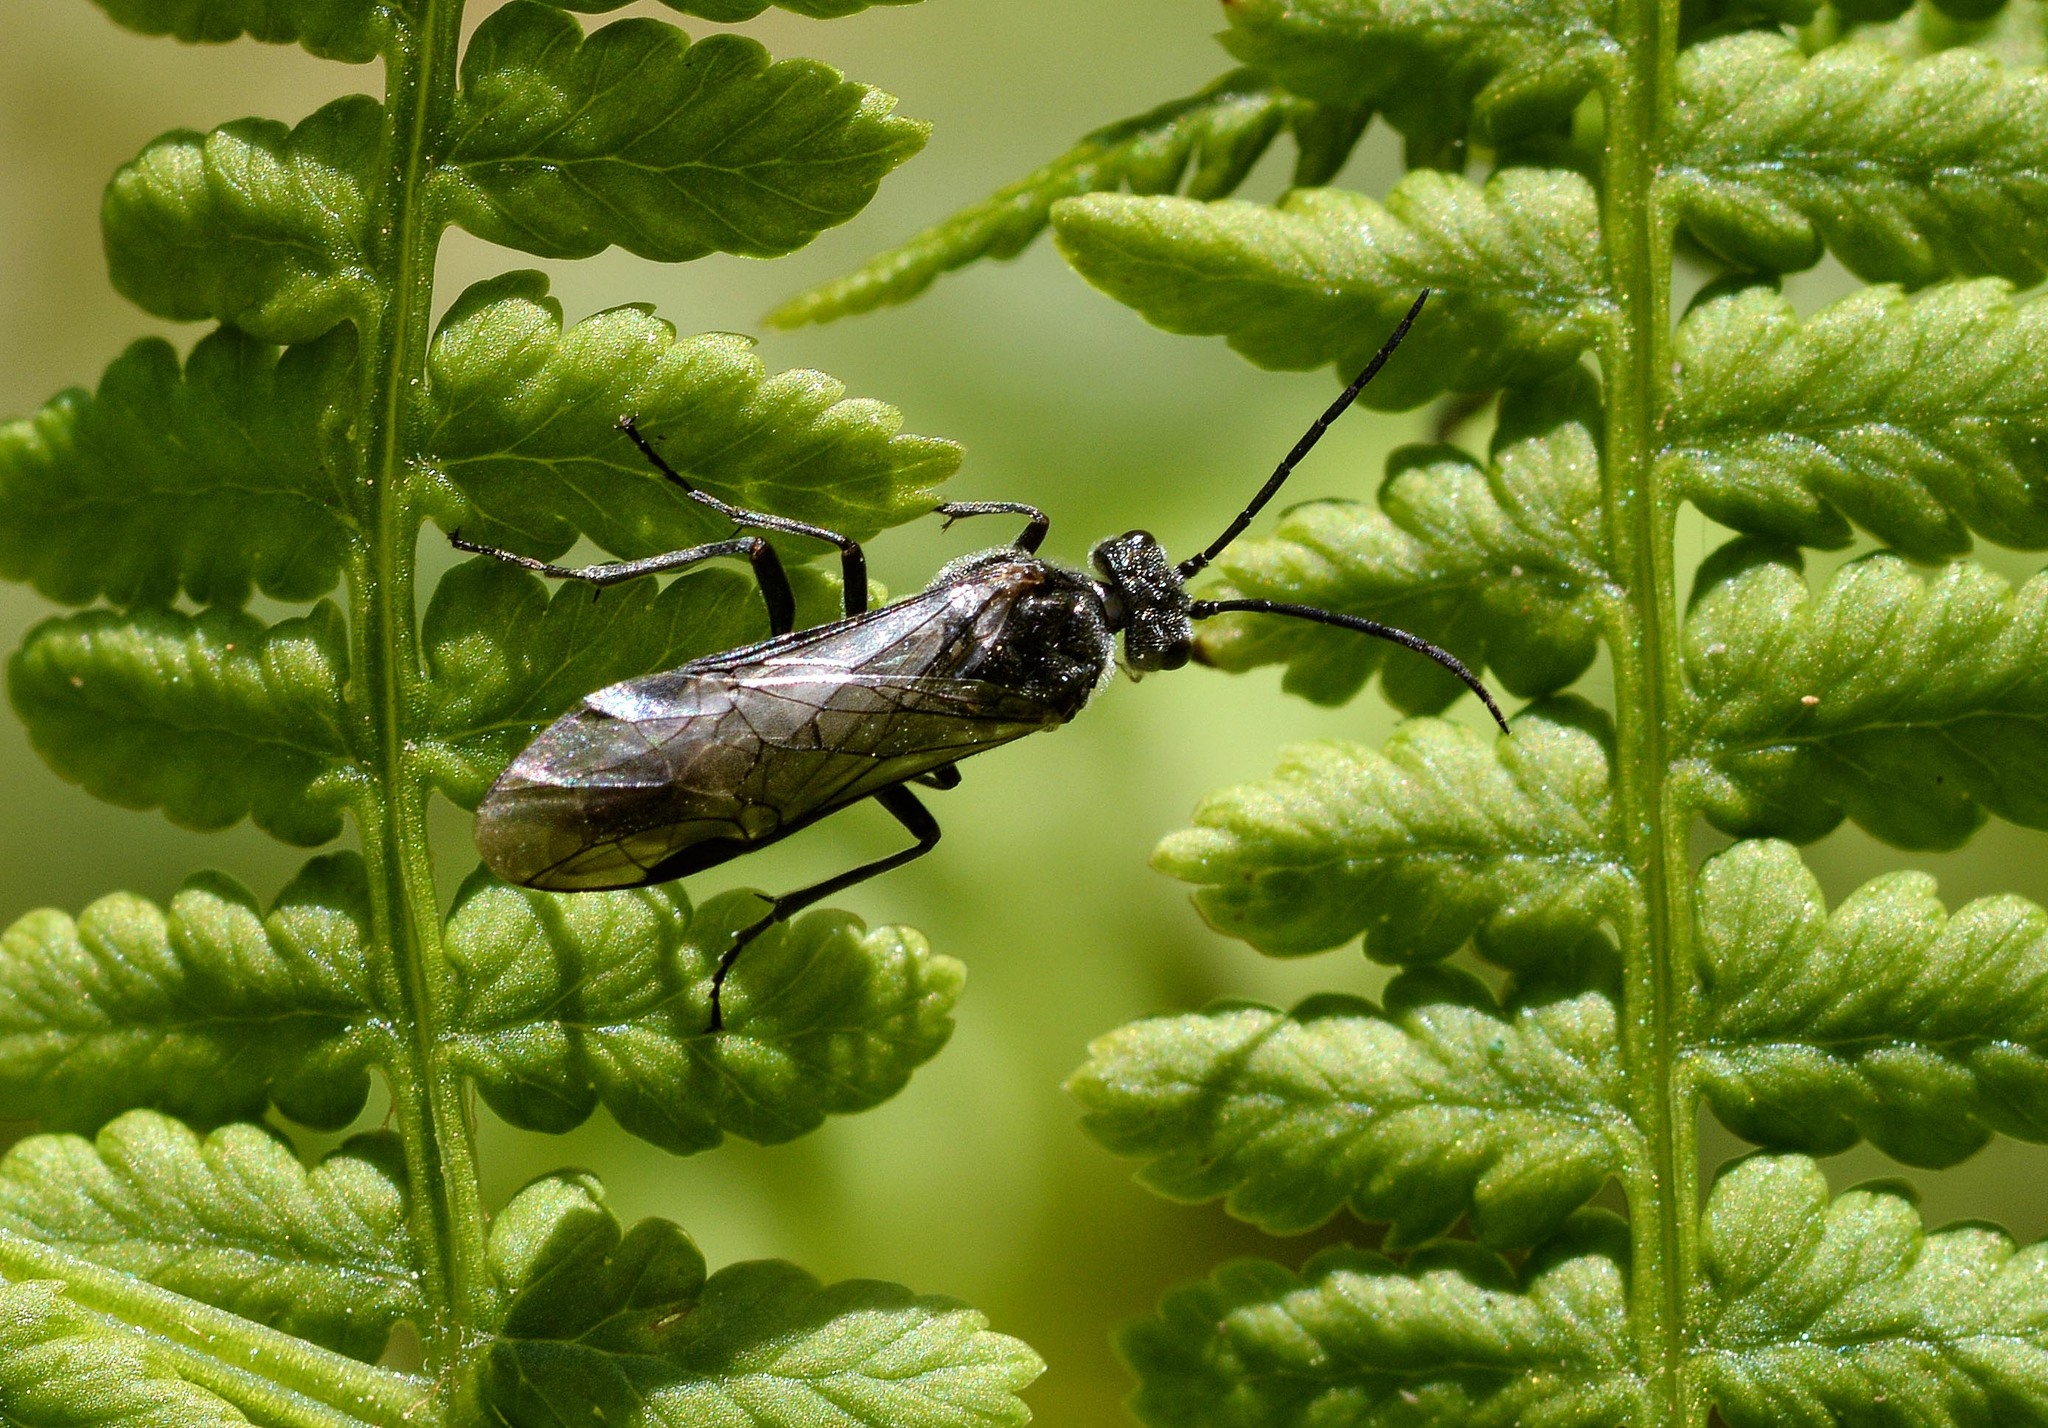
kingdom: Animalia
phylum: Arthropoda
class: Insecta
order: Hymenoptera
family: Tenthredinidae
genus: Dolerus
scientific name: Dolerus aeneus
